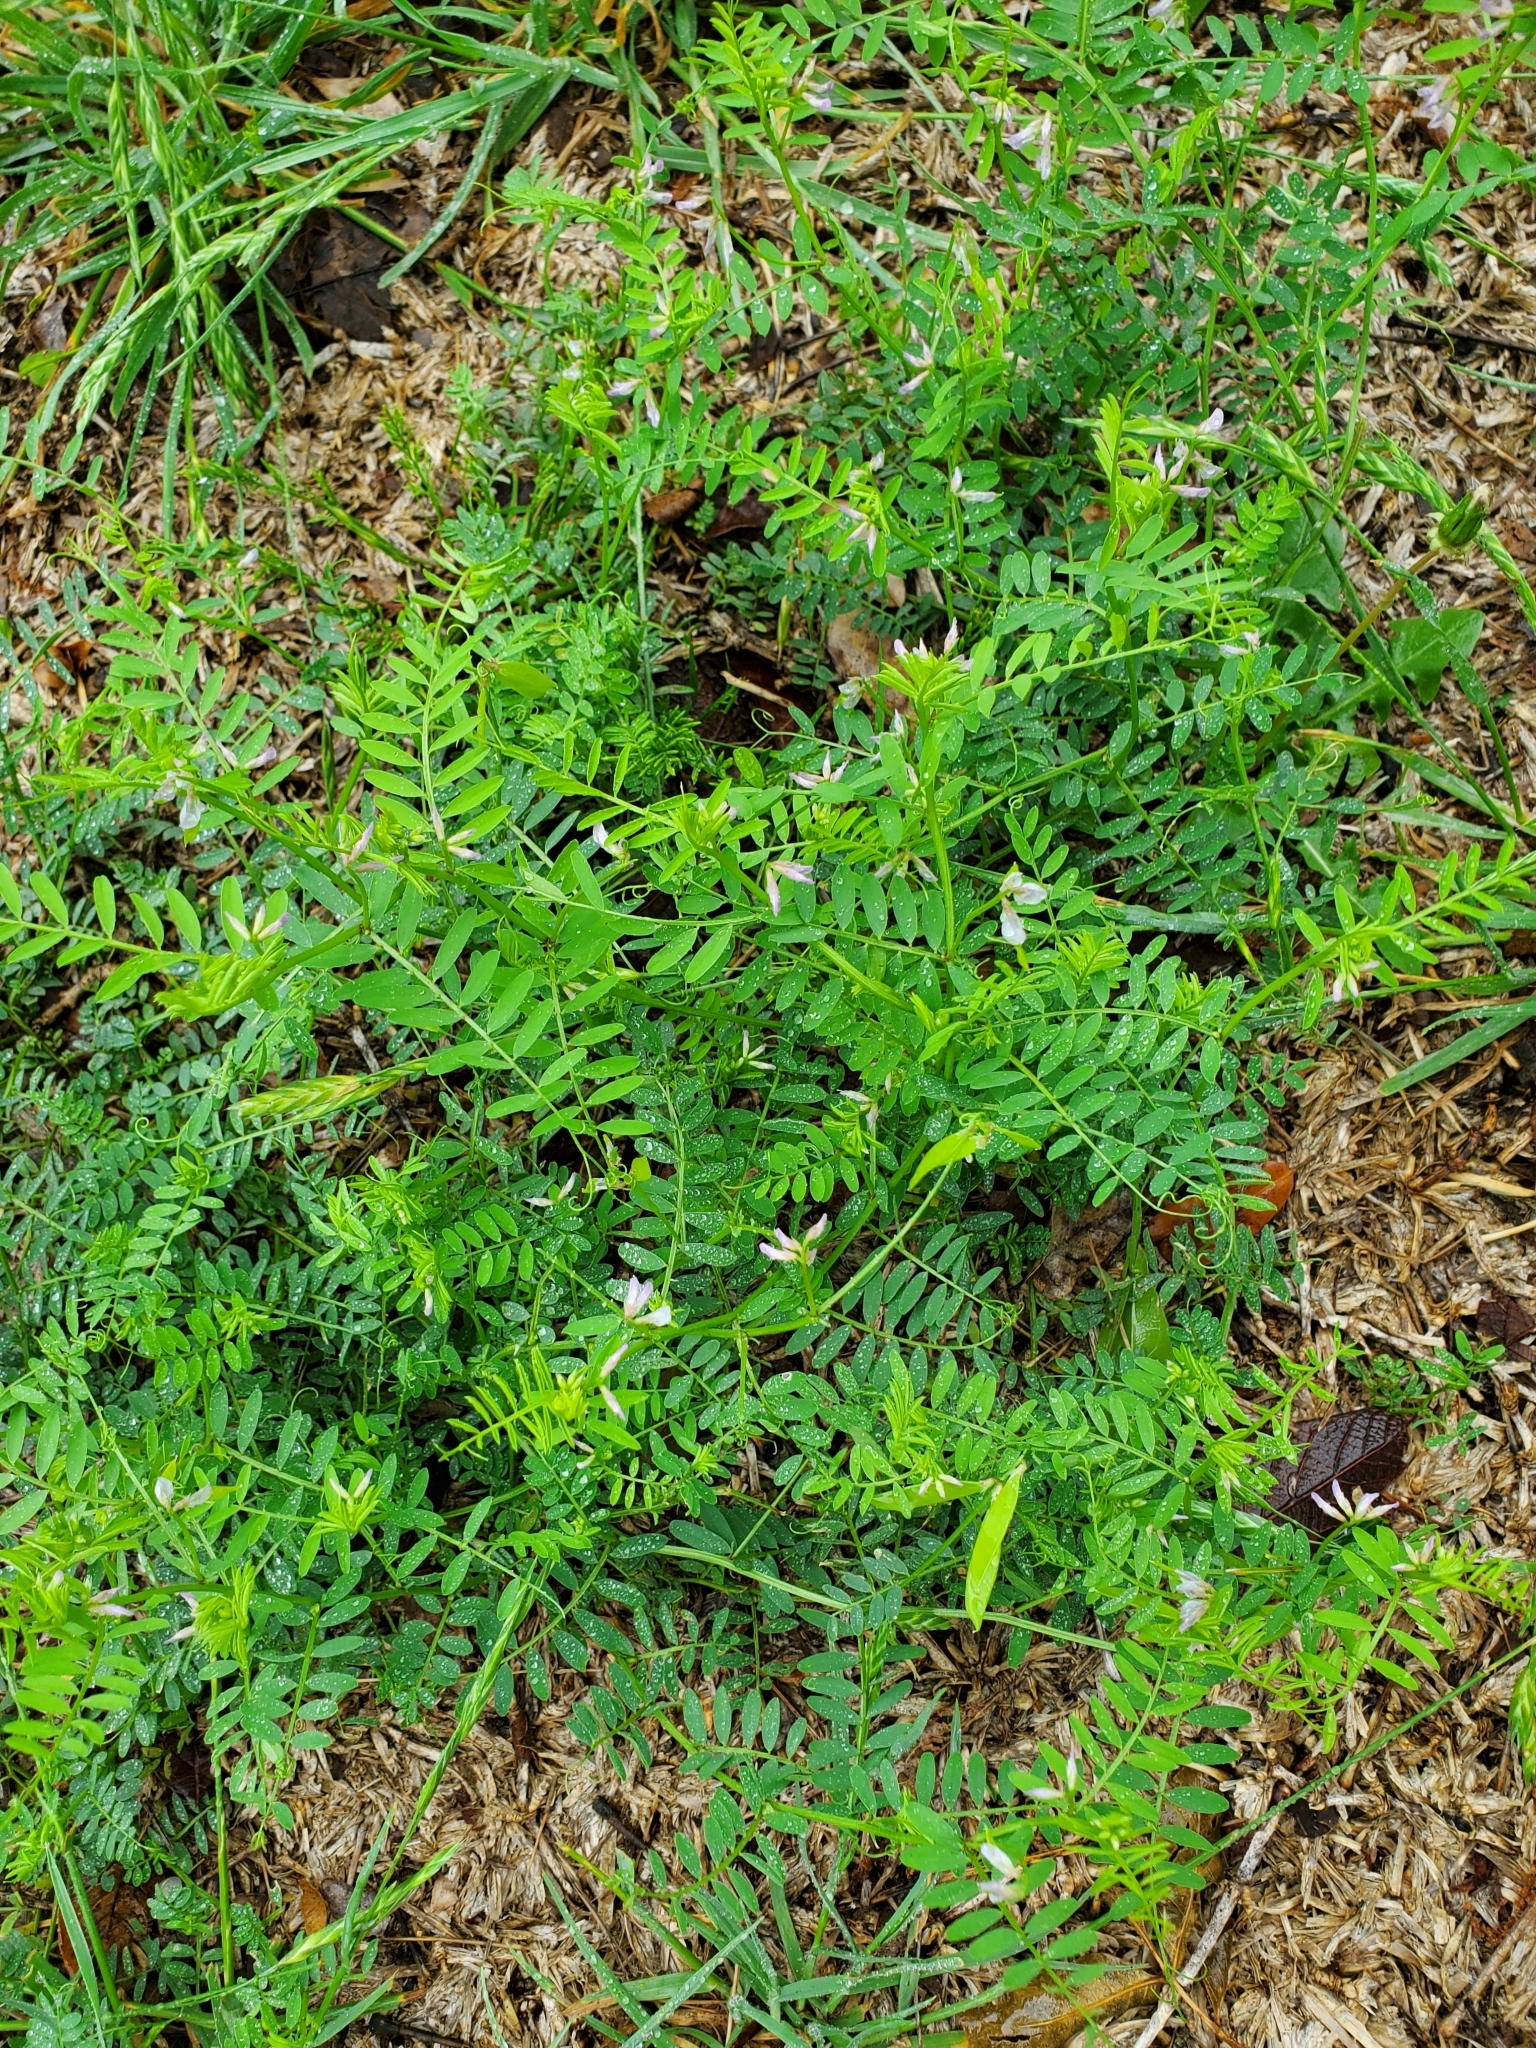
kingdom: Plantae
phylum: Tracheophyta
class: Magnoliopsida
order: Fabales
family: Fabaceae
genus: Vicia
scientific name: Vicia ludoviciana
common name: Louisiana vetch
